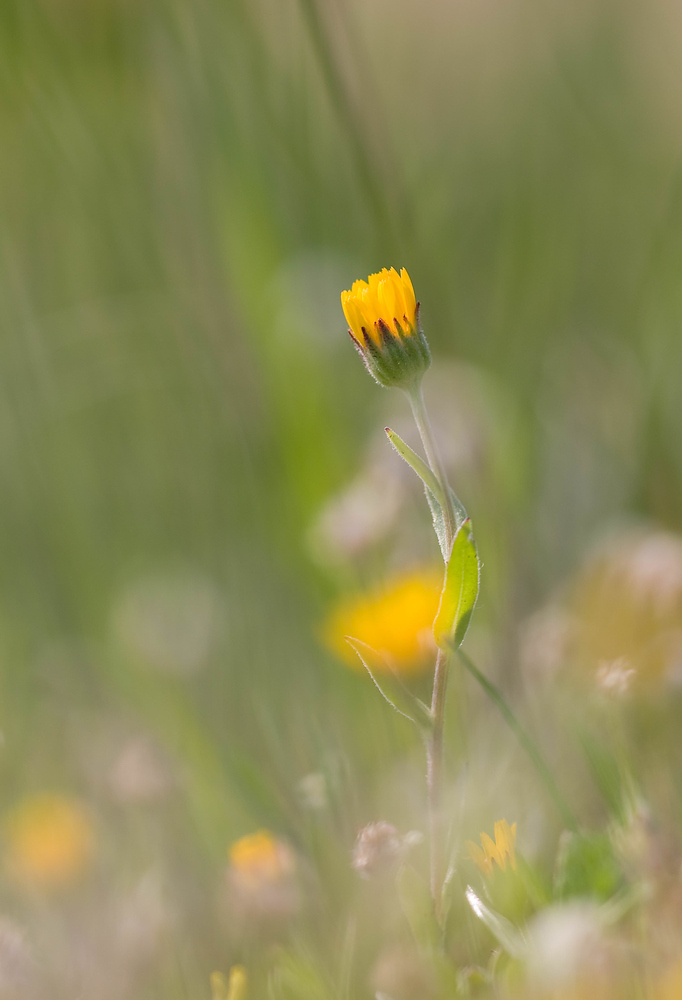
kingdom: Plantae
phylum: Tracheophyta
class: Magnoliopsida
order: Asterales
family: Asteraceae
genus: Calendula
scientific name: Calendula arvensis
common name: Field marigold
